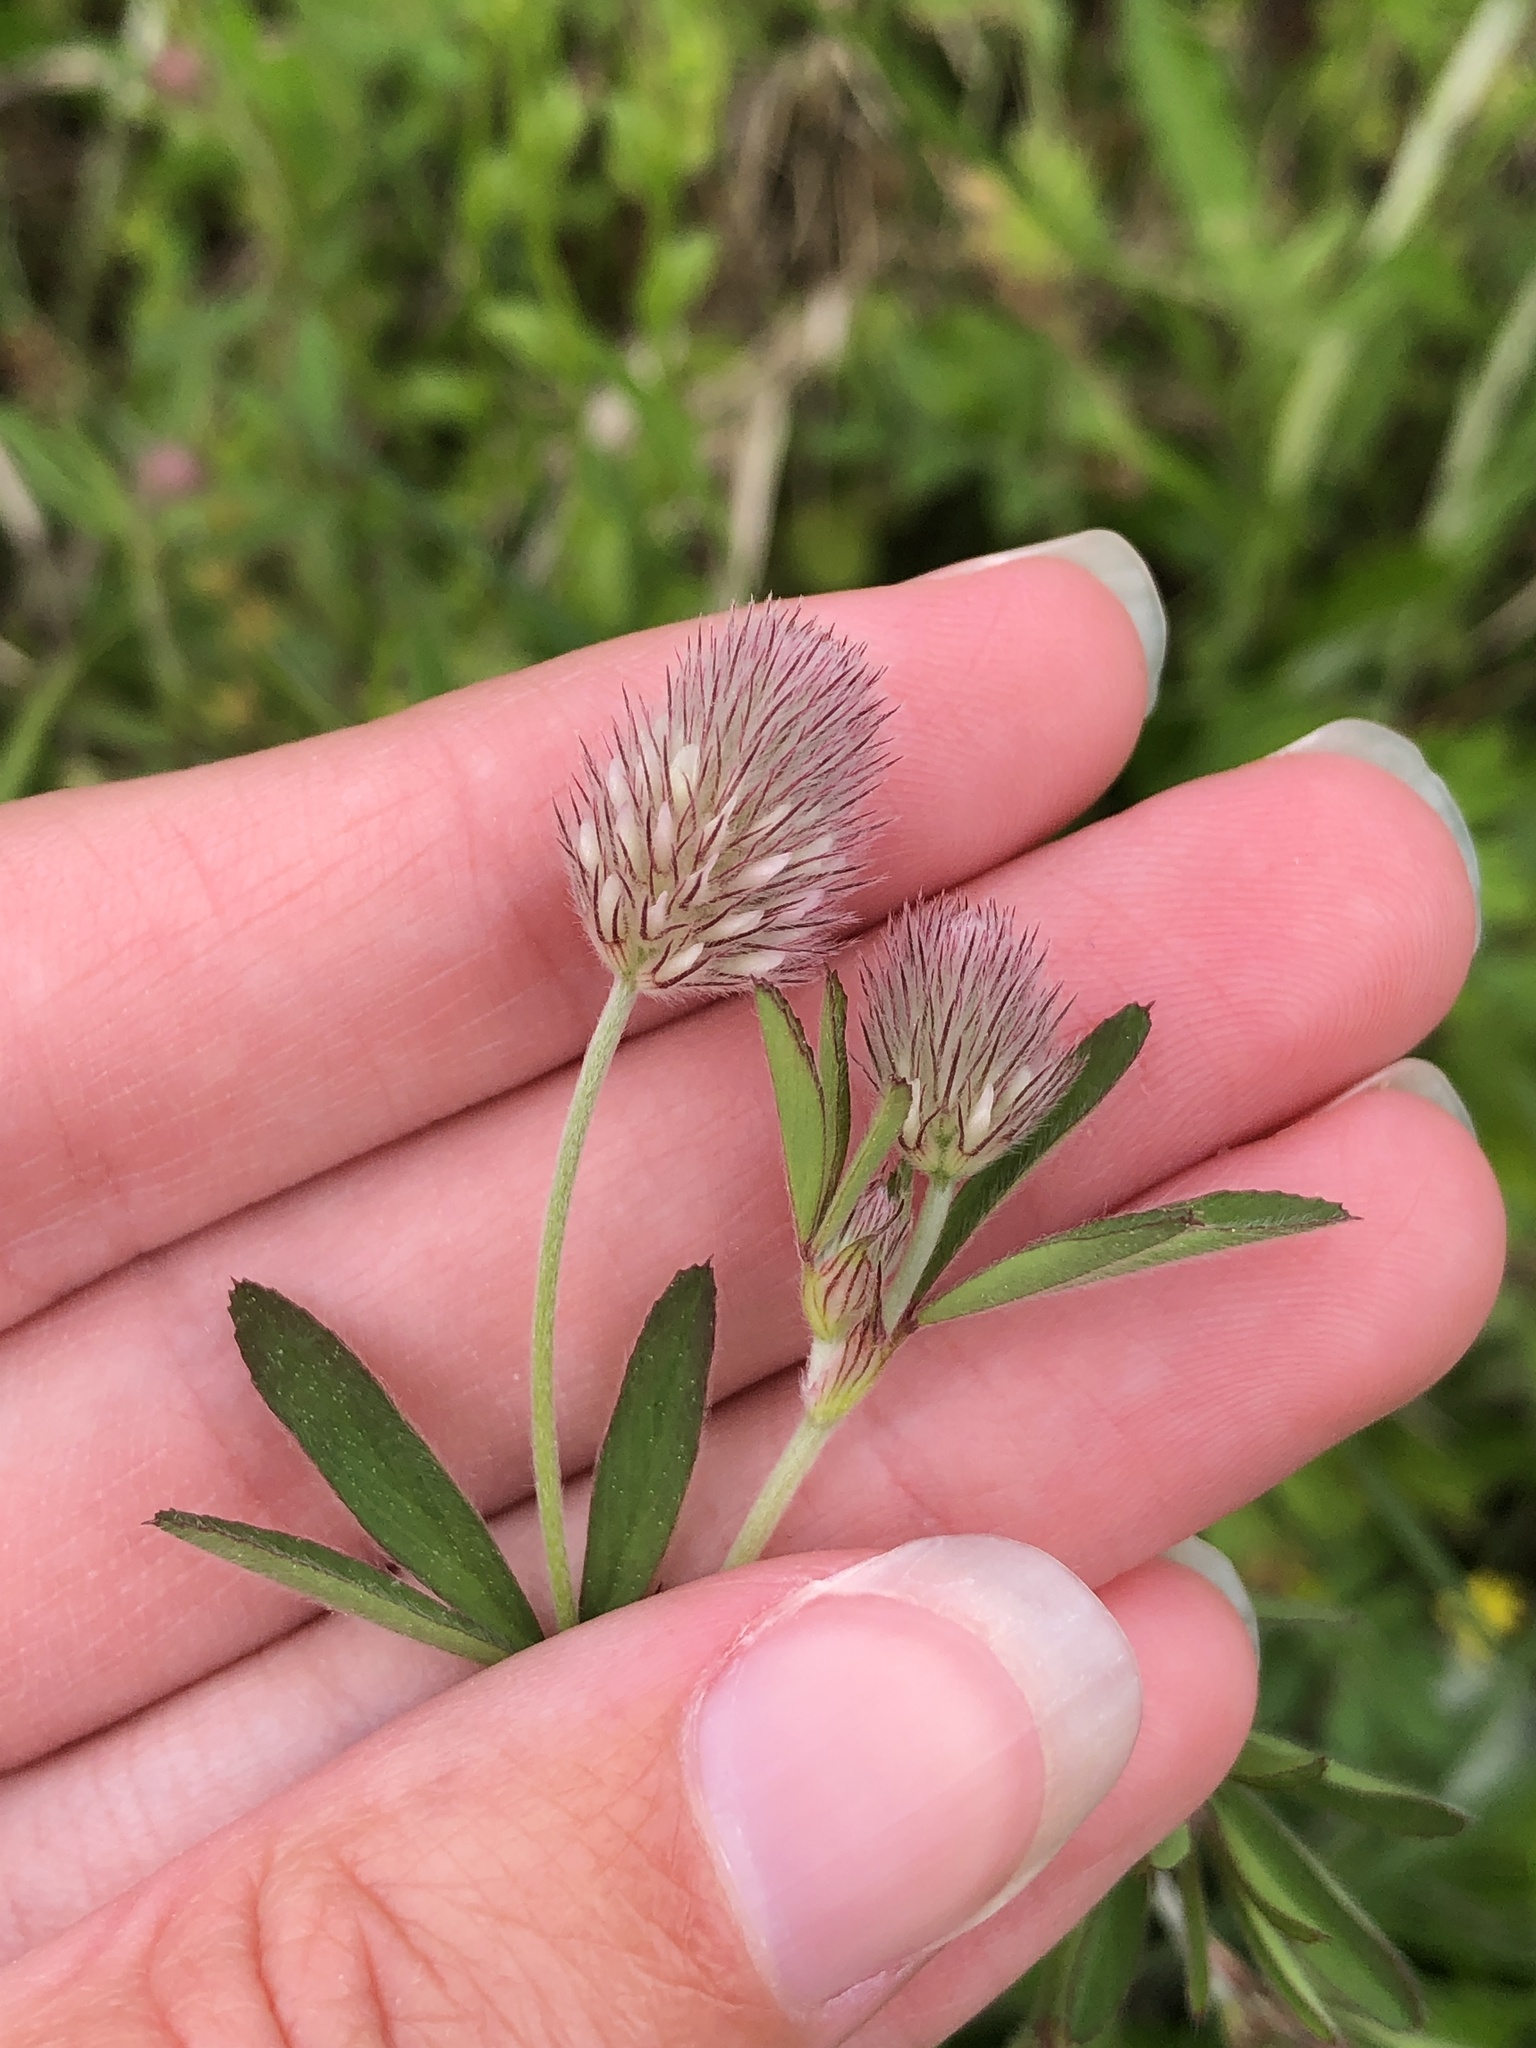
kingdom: Plantae
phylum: Tracheophyta
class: Magnoliopsida
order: Fabales
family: Fabaceae
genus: Trifolium
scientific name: Trifolium arvense
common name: Hare's-foot clover
